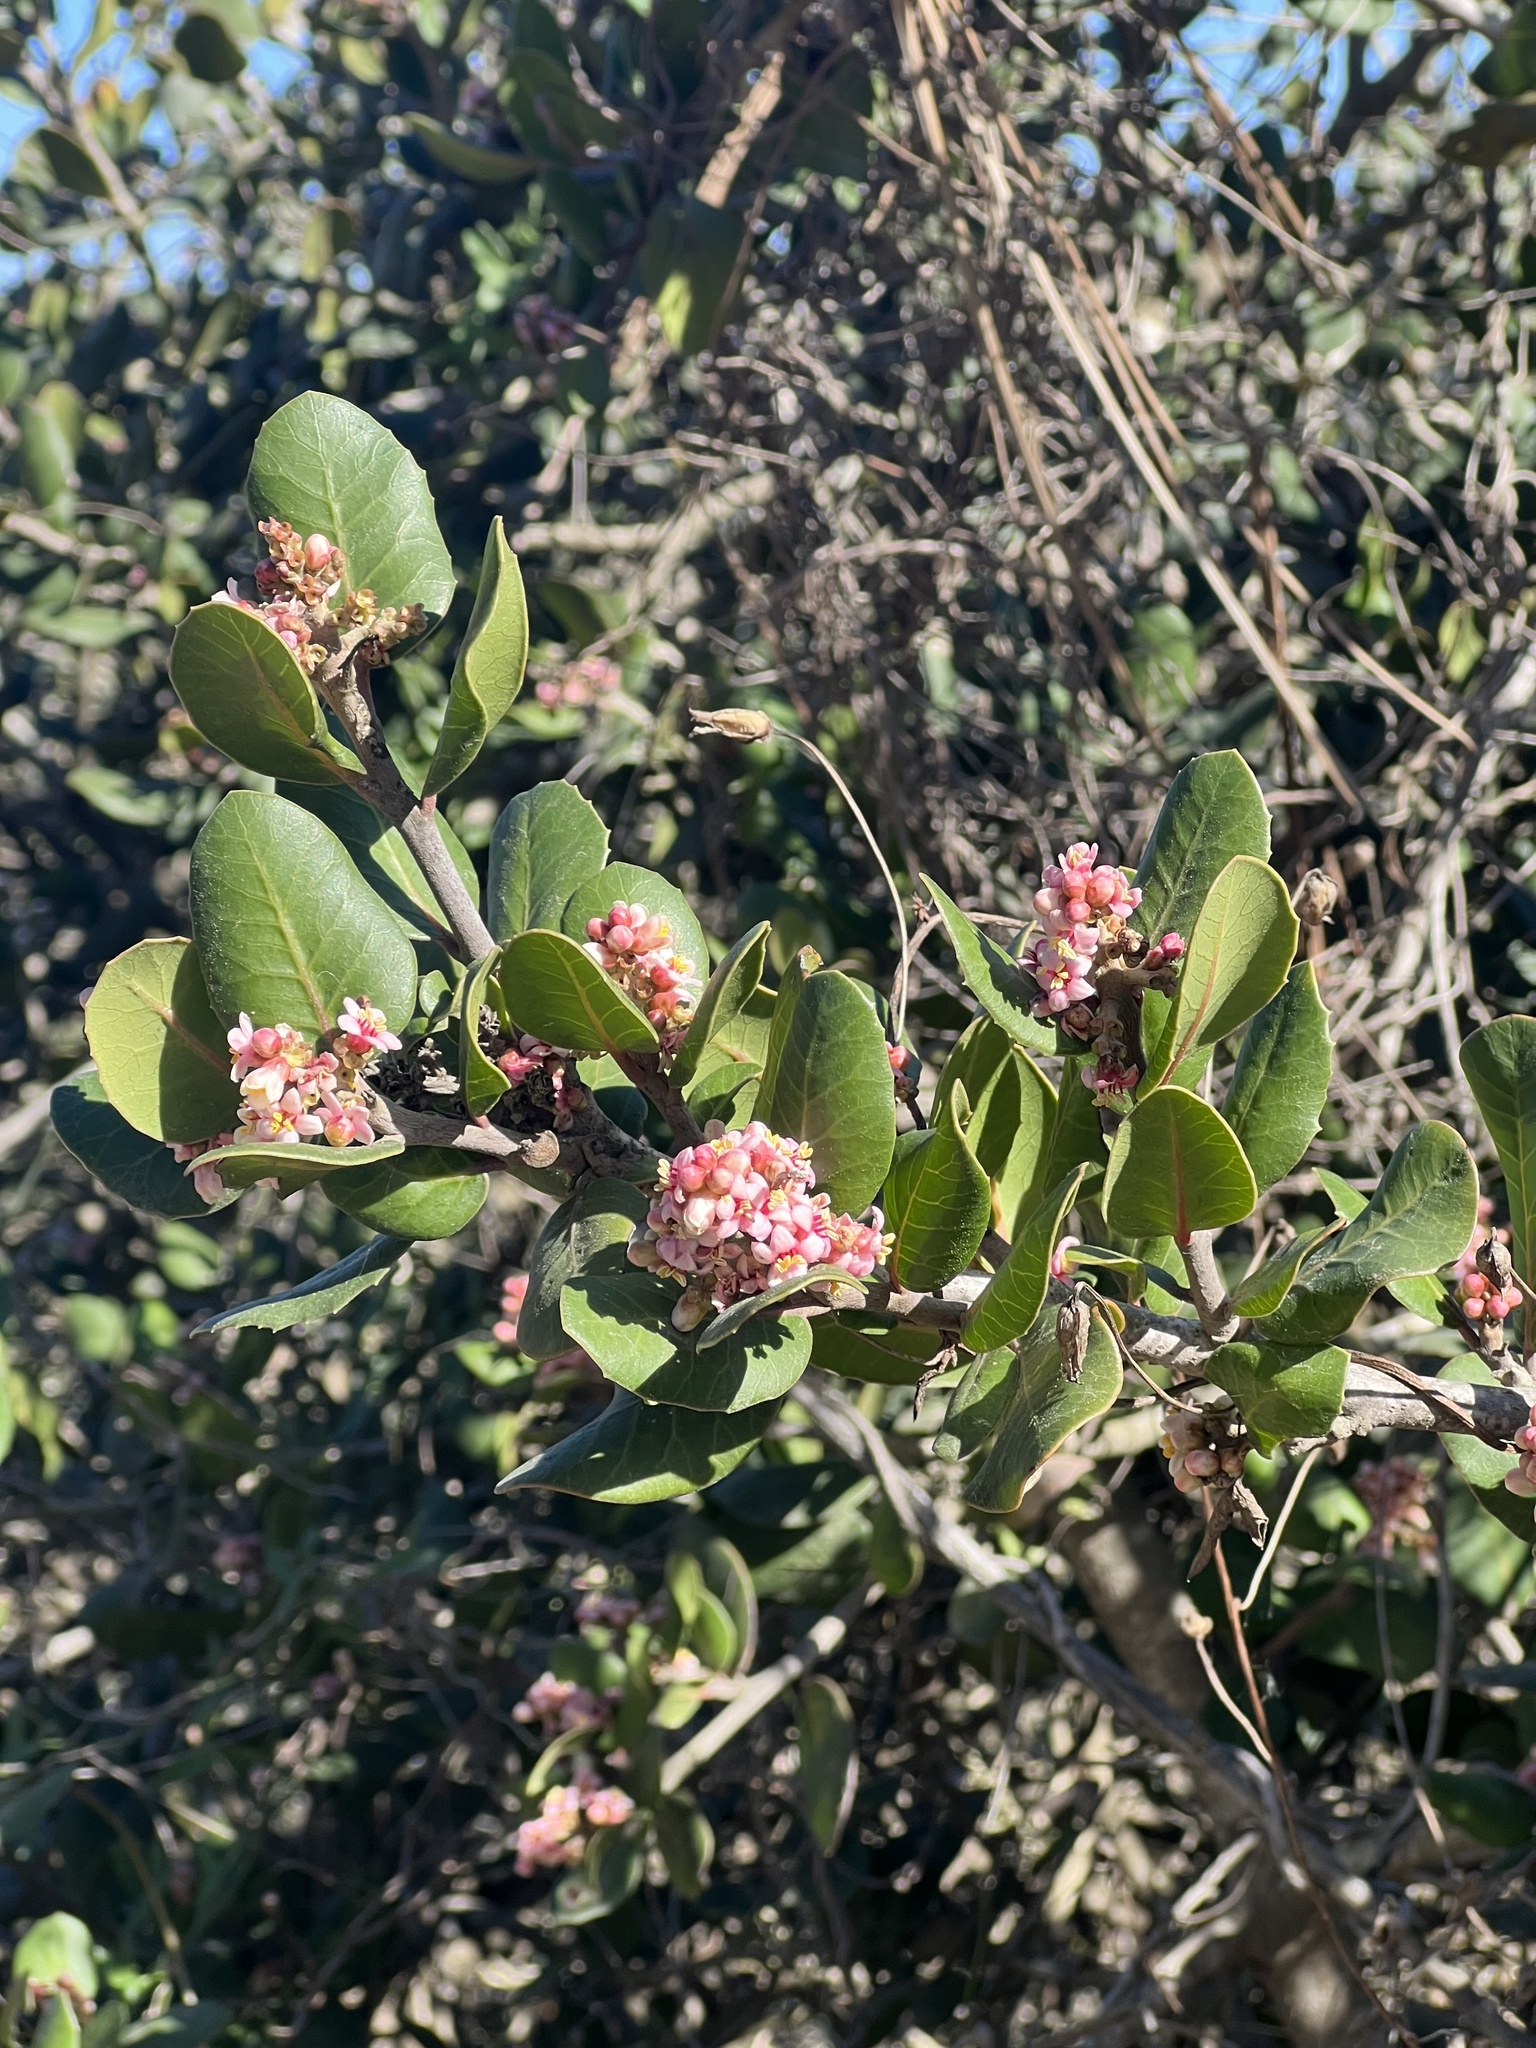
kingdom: Plantae
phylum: Tracheophyta
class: Magnoliopsida
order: Sapindales
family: Anacardiaceae
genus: Rhus
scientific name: Rhus integrifolia
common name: Lemonade sumac
